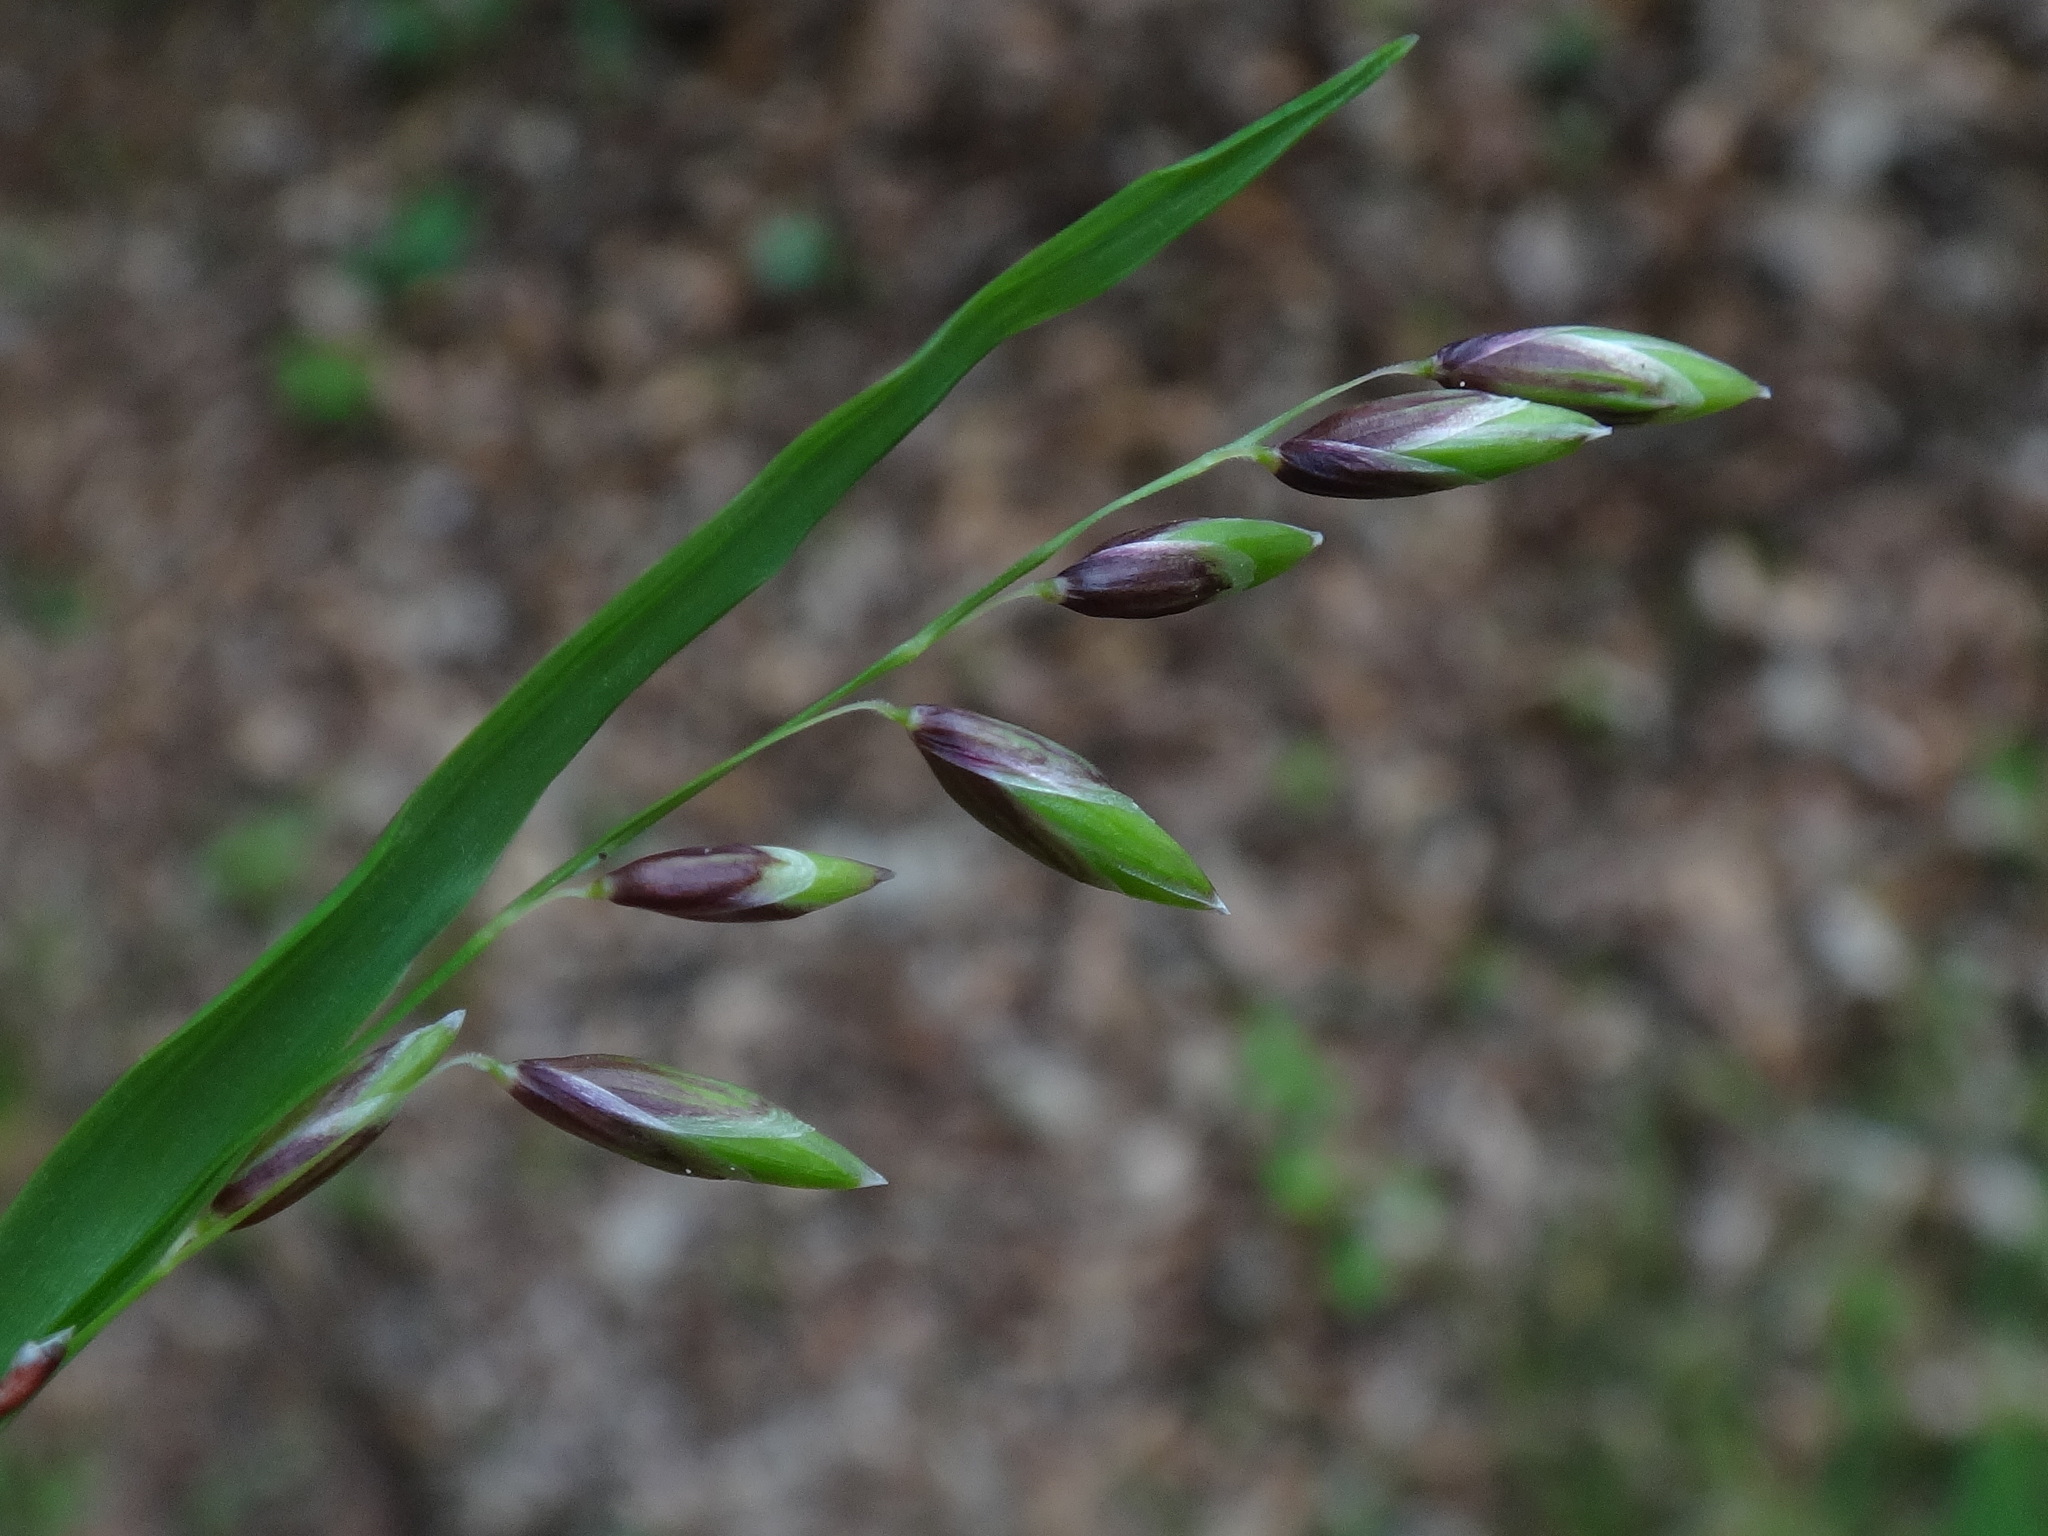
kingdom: Plantae
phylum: Tracheophyta
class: Liliopsida
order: Poales
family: Poaceae
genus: Melica
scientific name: Melica nutans
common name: Mountain melick
